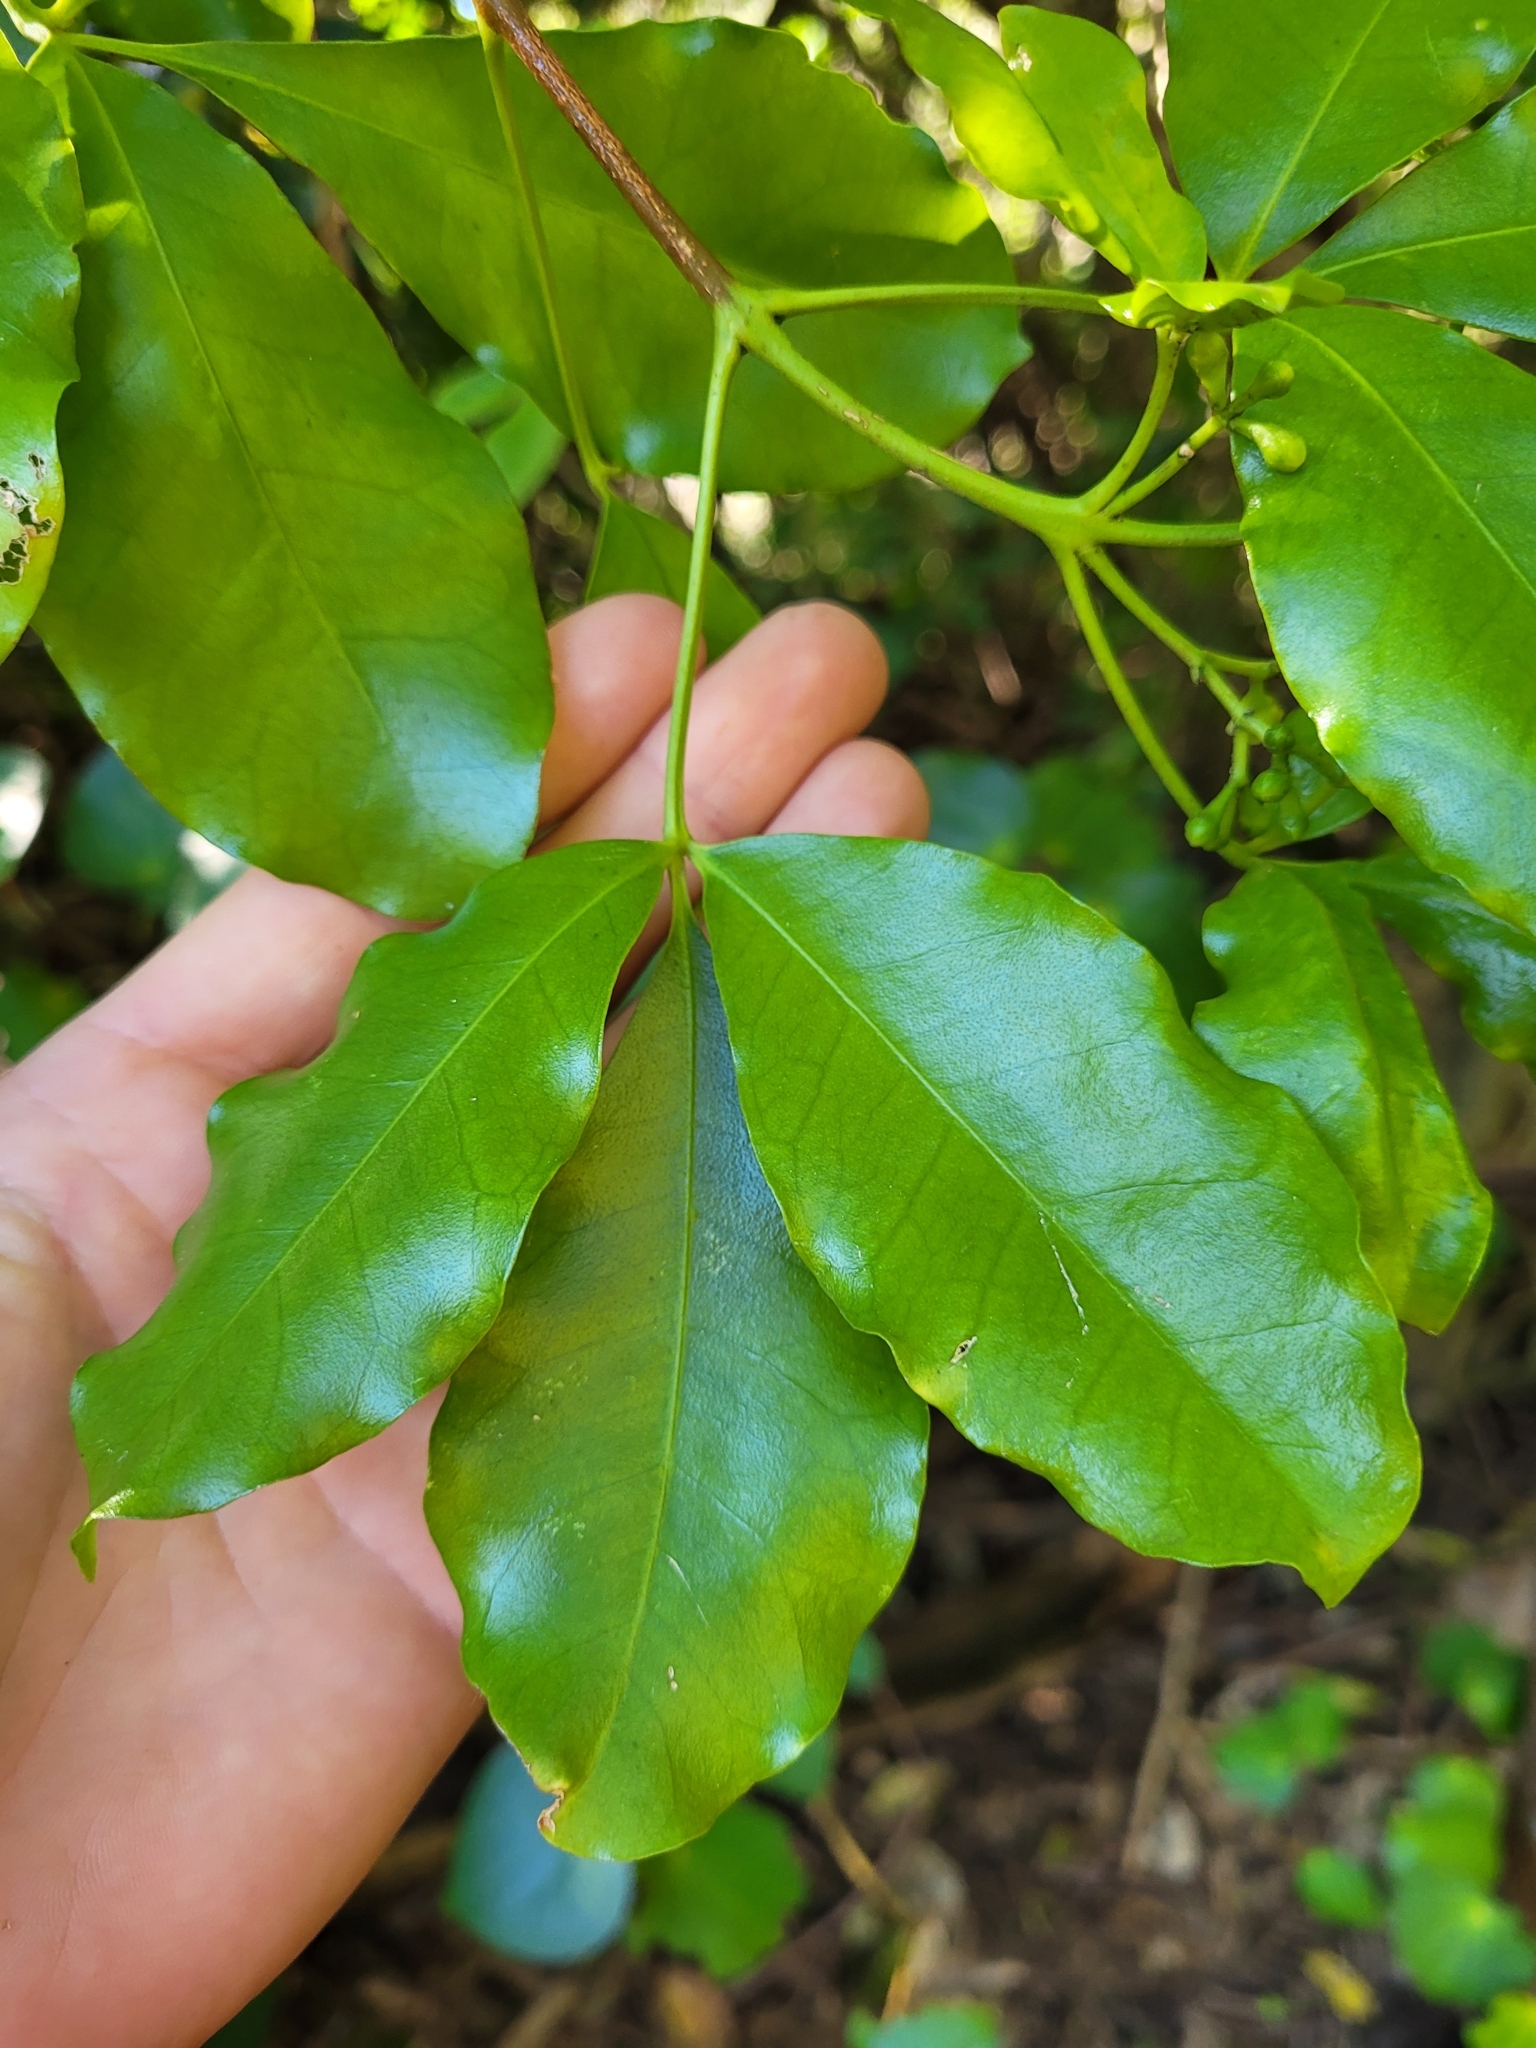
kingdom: Plantae
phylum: Tracheophyta
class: Magnoliopsida
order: Sapindales
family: Rutaceae
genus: Melicope
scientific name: Melicope ternata
